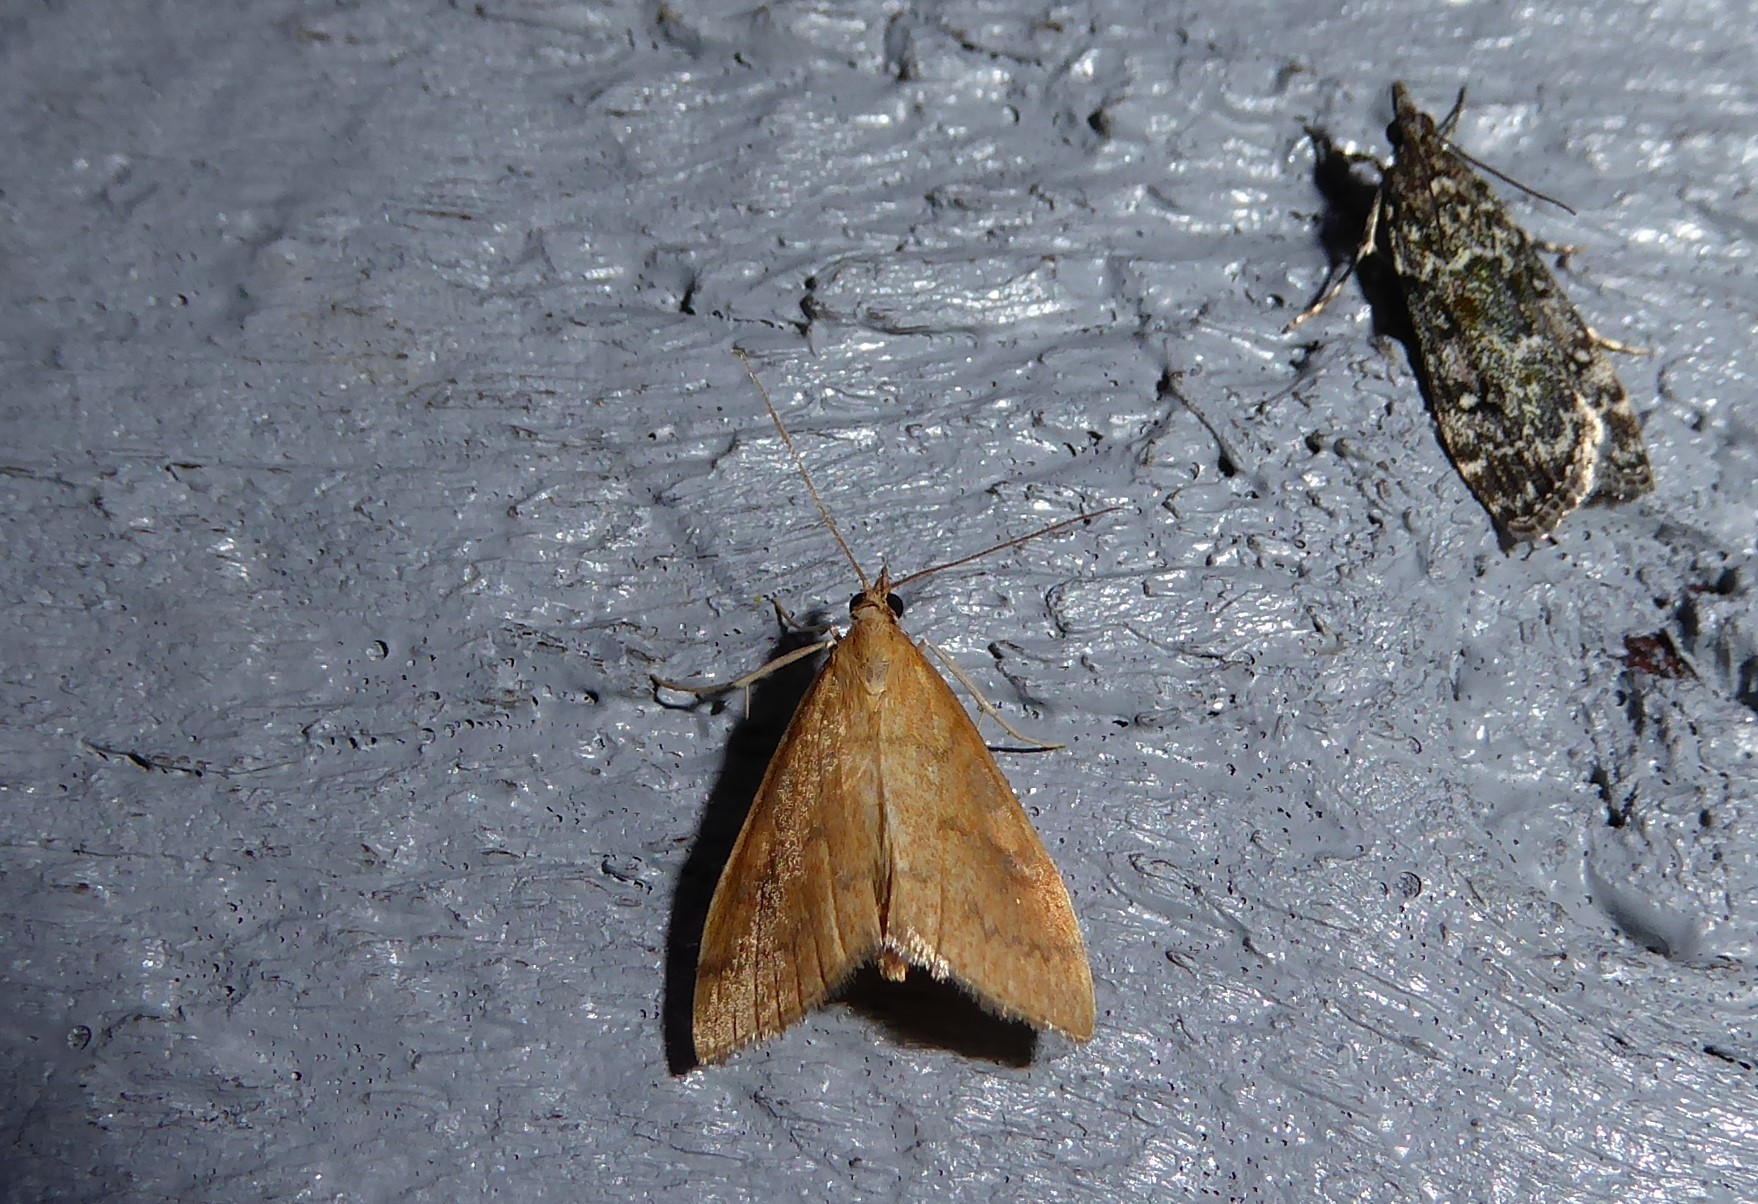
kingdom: Animalia
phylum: Arthropoda
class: Insecta
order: Lepidoptera
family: Crambidae
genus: Udea
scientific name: Udea Mnesictena flavidalis
